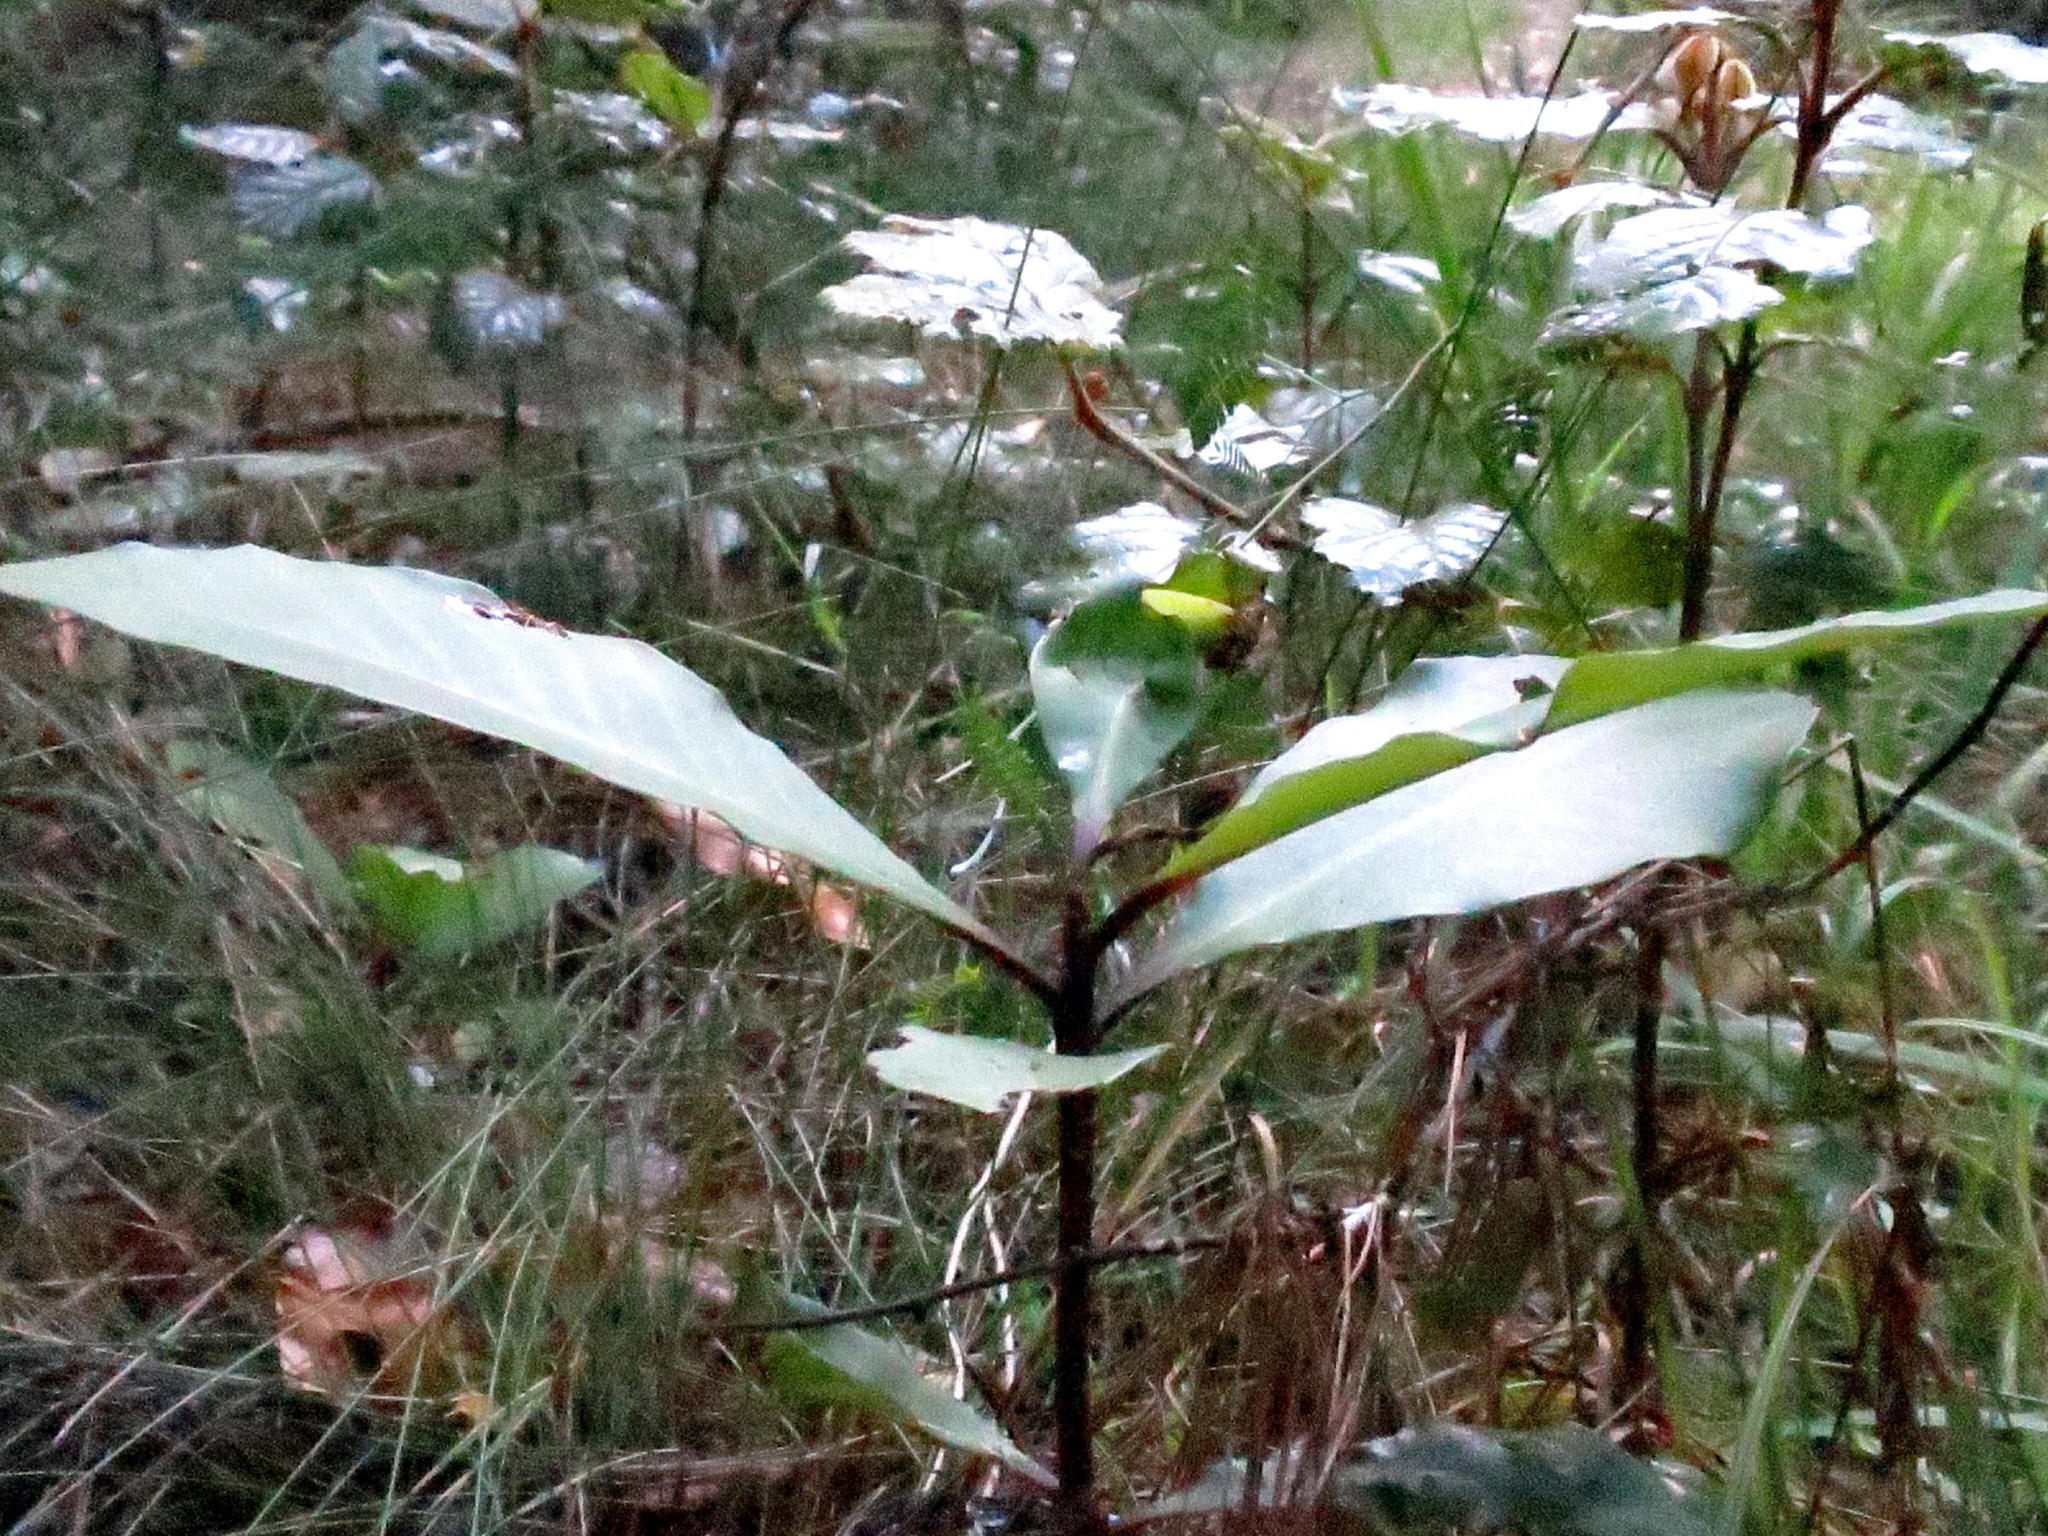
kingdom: Plantae
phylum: Tracheophyta
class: Magnoliopsida
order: Ericales
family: Primulaceae
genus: Myrsine
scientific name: Myrsine melanophloeos
